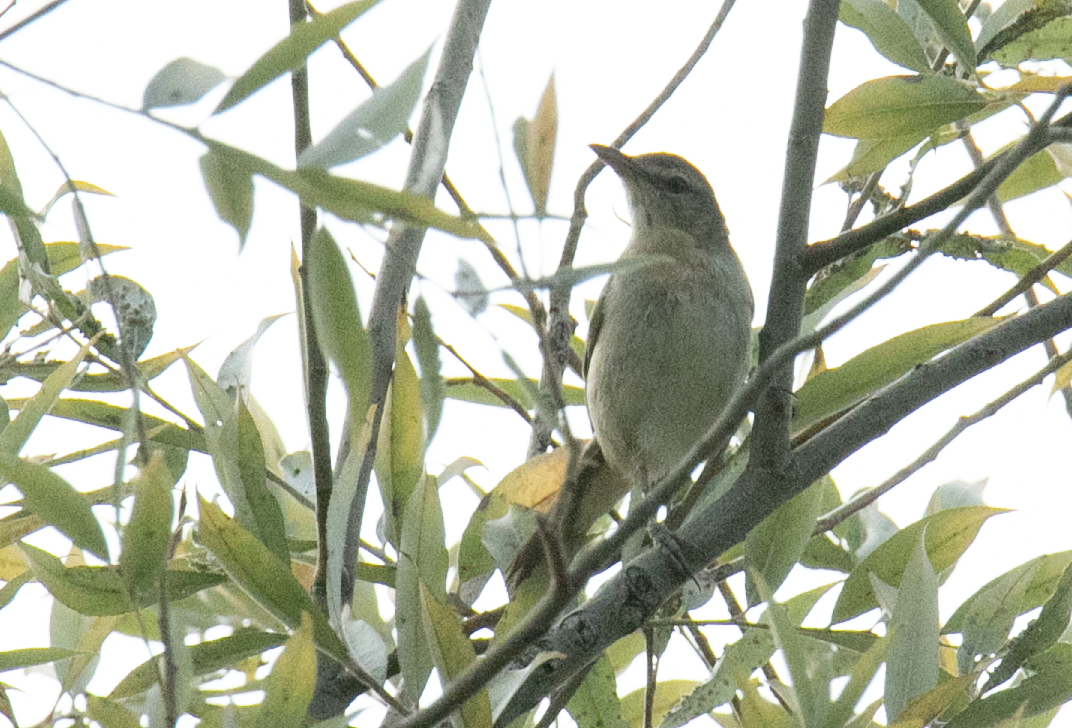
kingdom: Animalia
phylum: Chordata
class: Aves
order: Passeriformes
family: Acrocephalidae
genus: Acrocephalus
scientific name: Acrocephalus arundinaceus
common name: Great reed warbler
